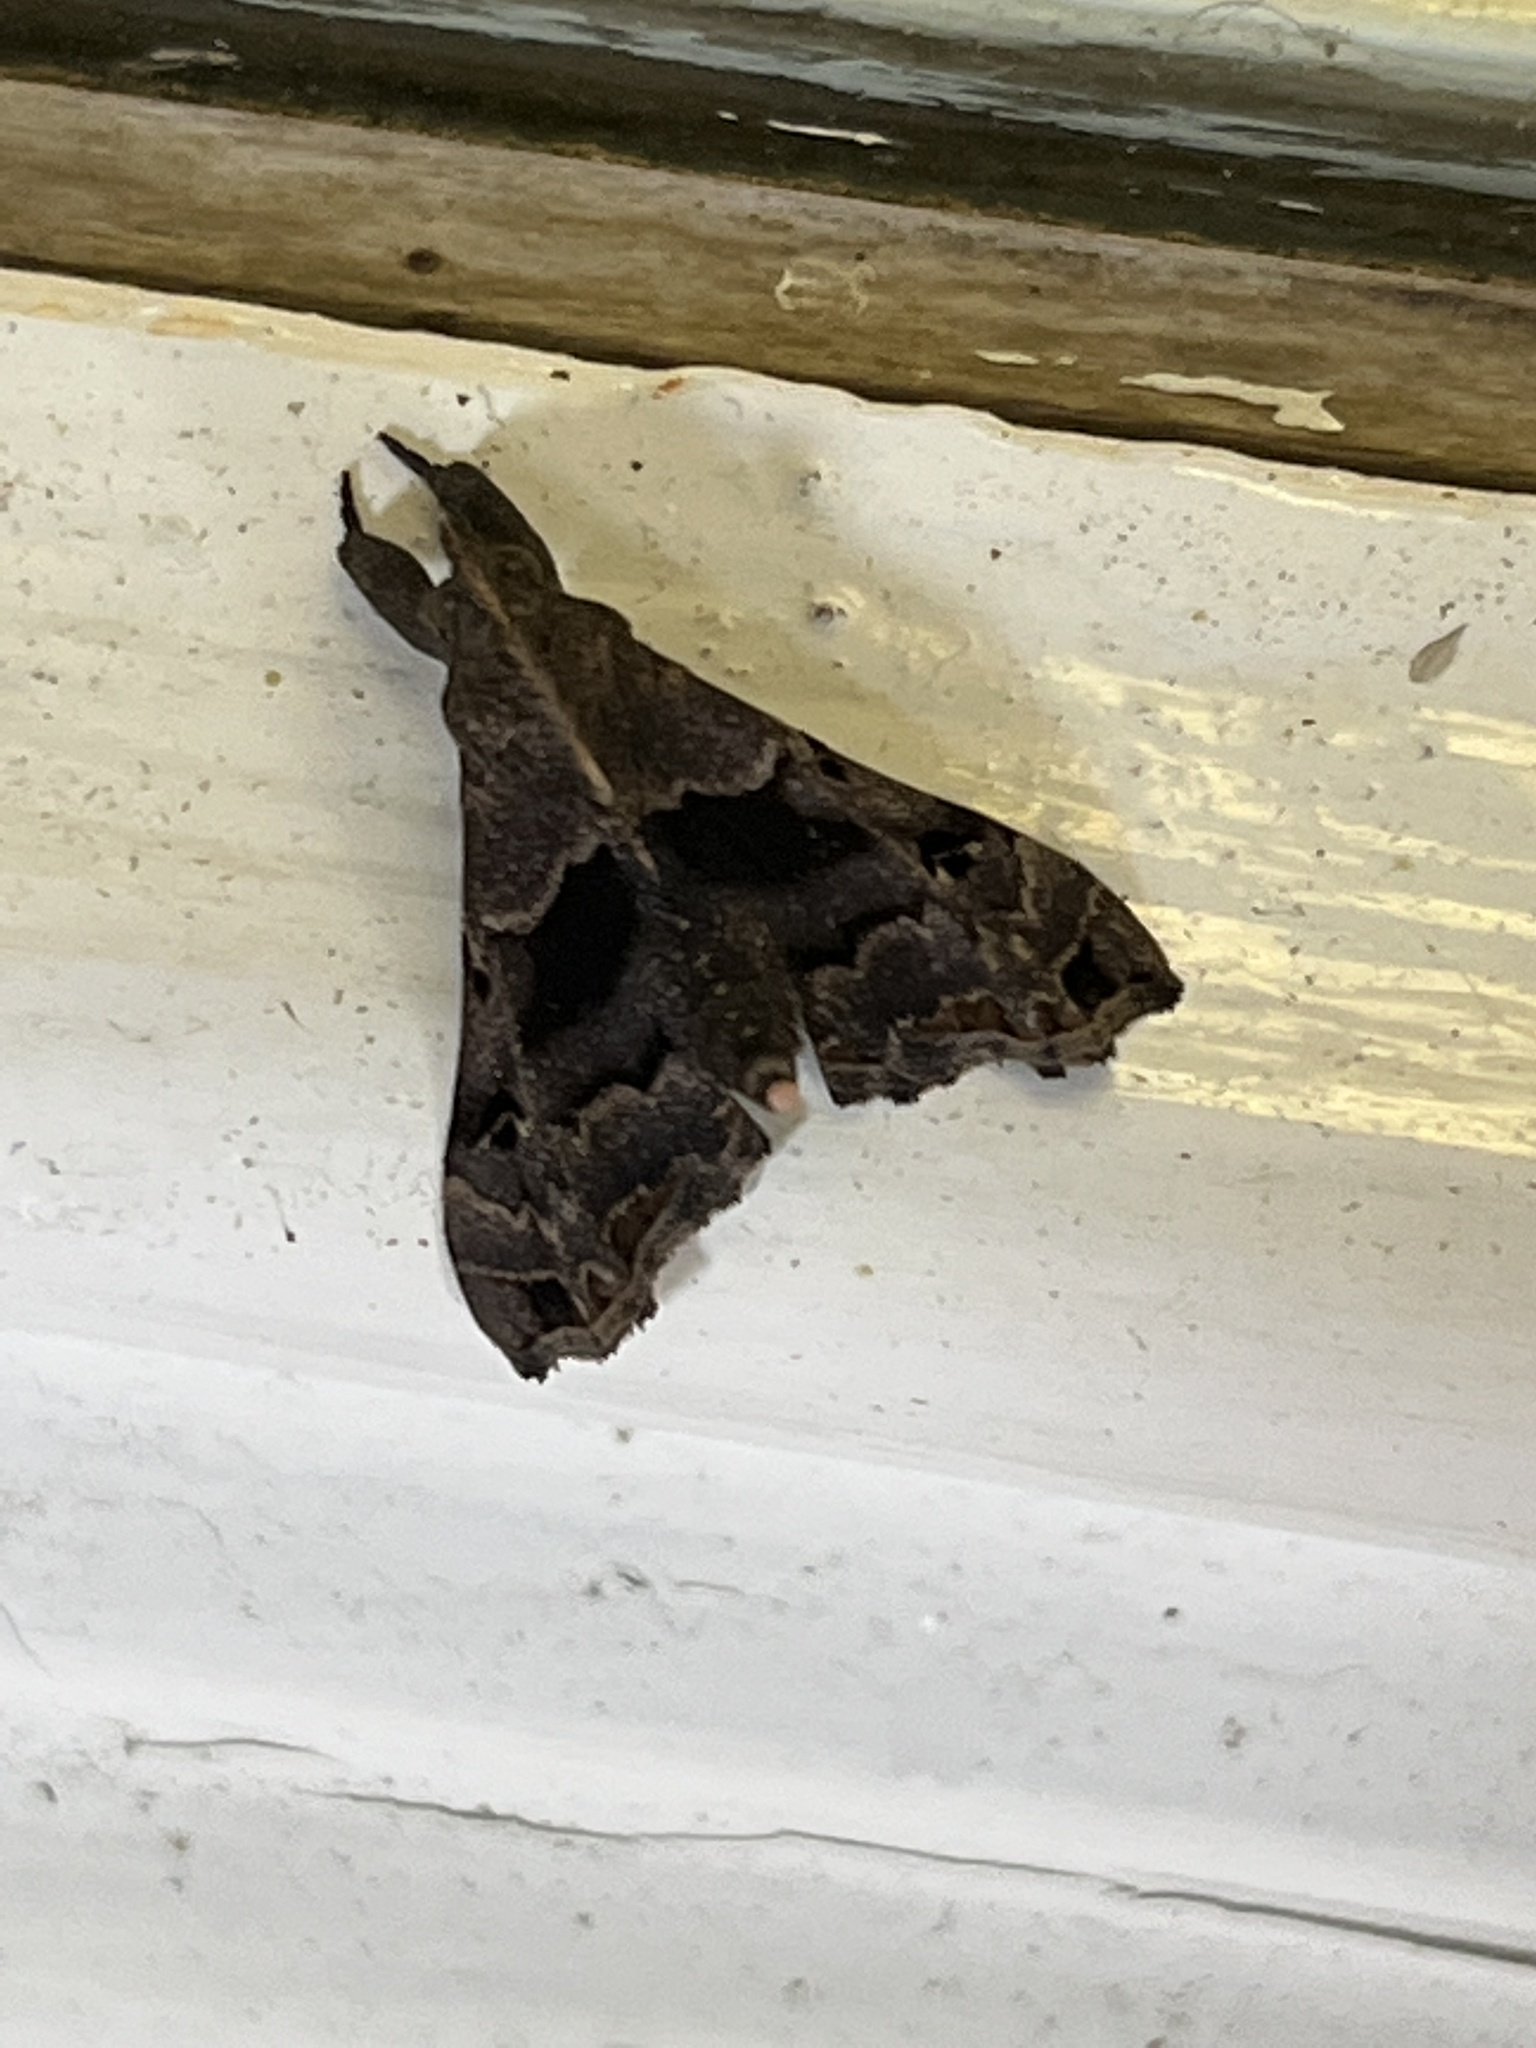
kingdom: Animalia
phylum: Arthropoda
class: Insecta
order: Lepidoptera
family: Erebidae
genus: Palthis
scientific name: Palthis asopialis
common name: Faint-spotted palthis moth
